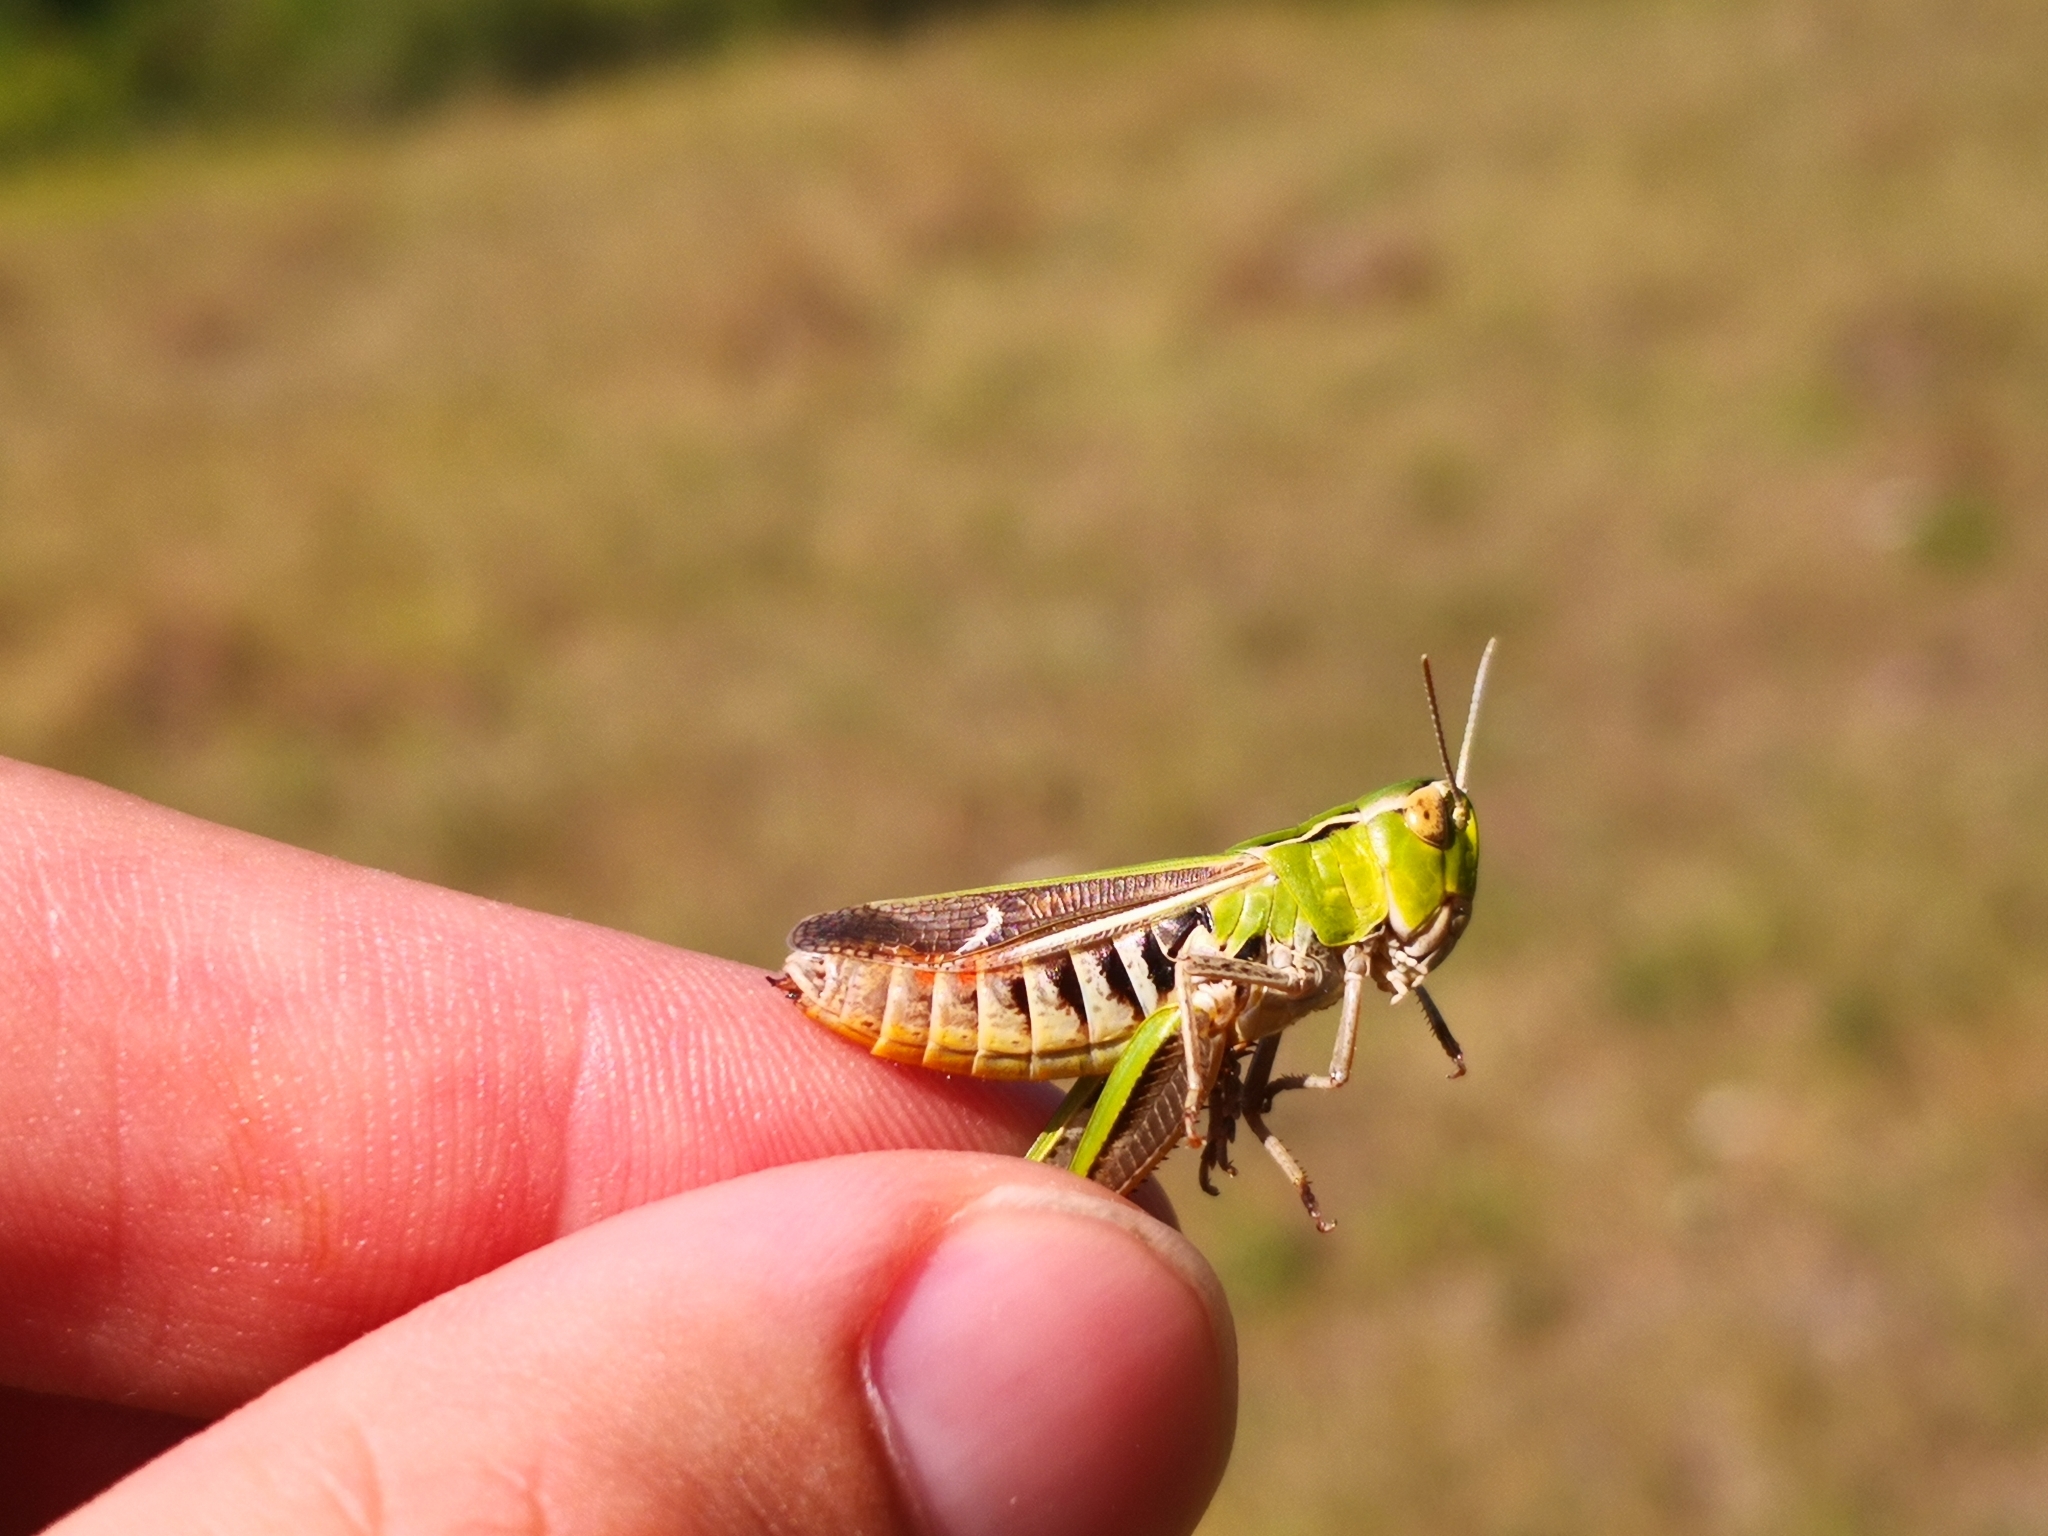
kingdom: Animalia
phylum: Arthropoda
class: Insecta
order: Orthoptera
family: Acrididae
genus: Stenobothrus
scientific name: Stenobothrus lineatus
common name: Stripe-winged grasshopper
